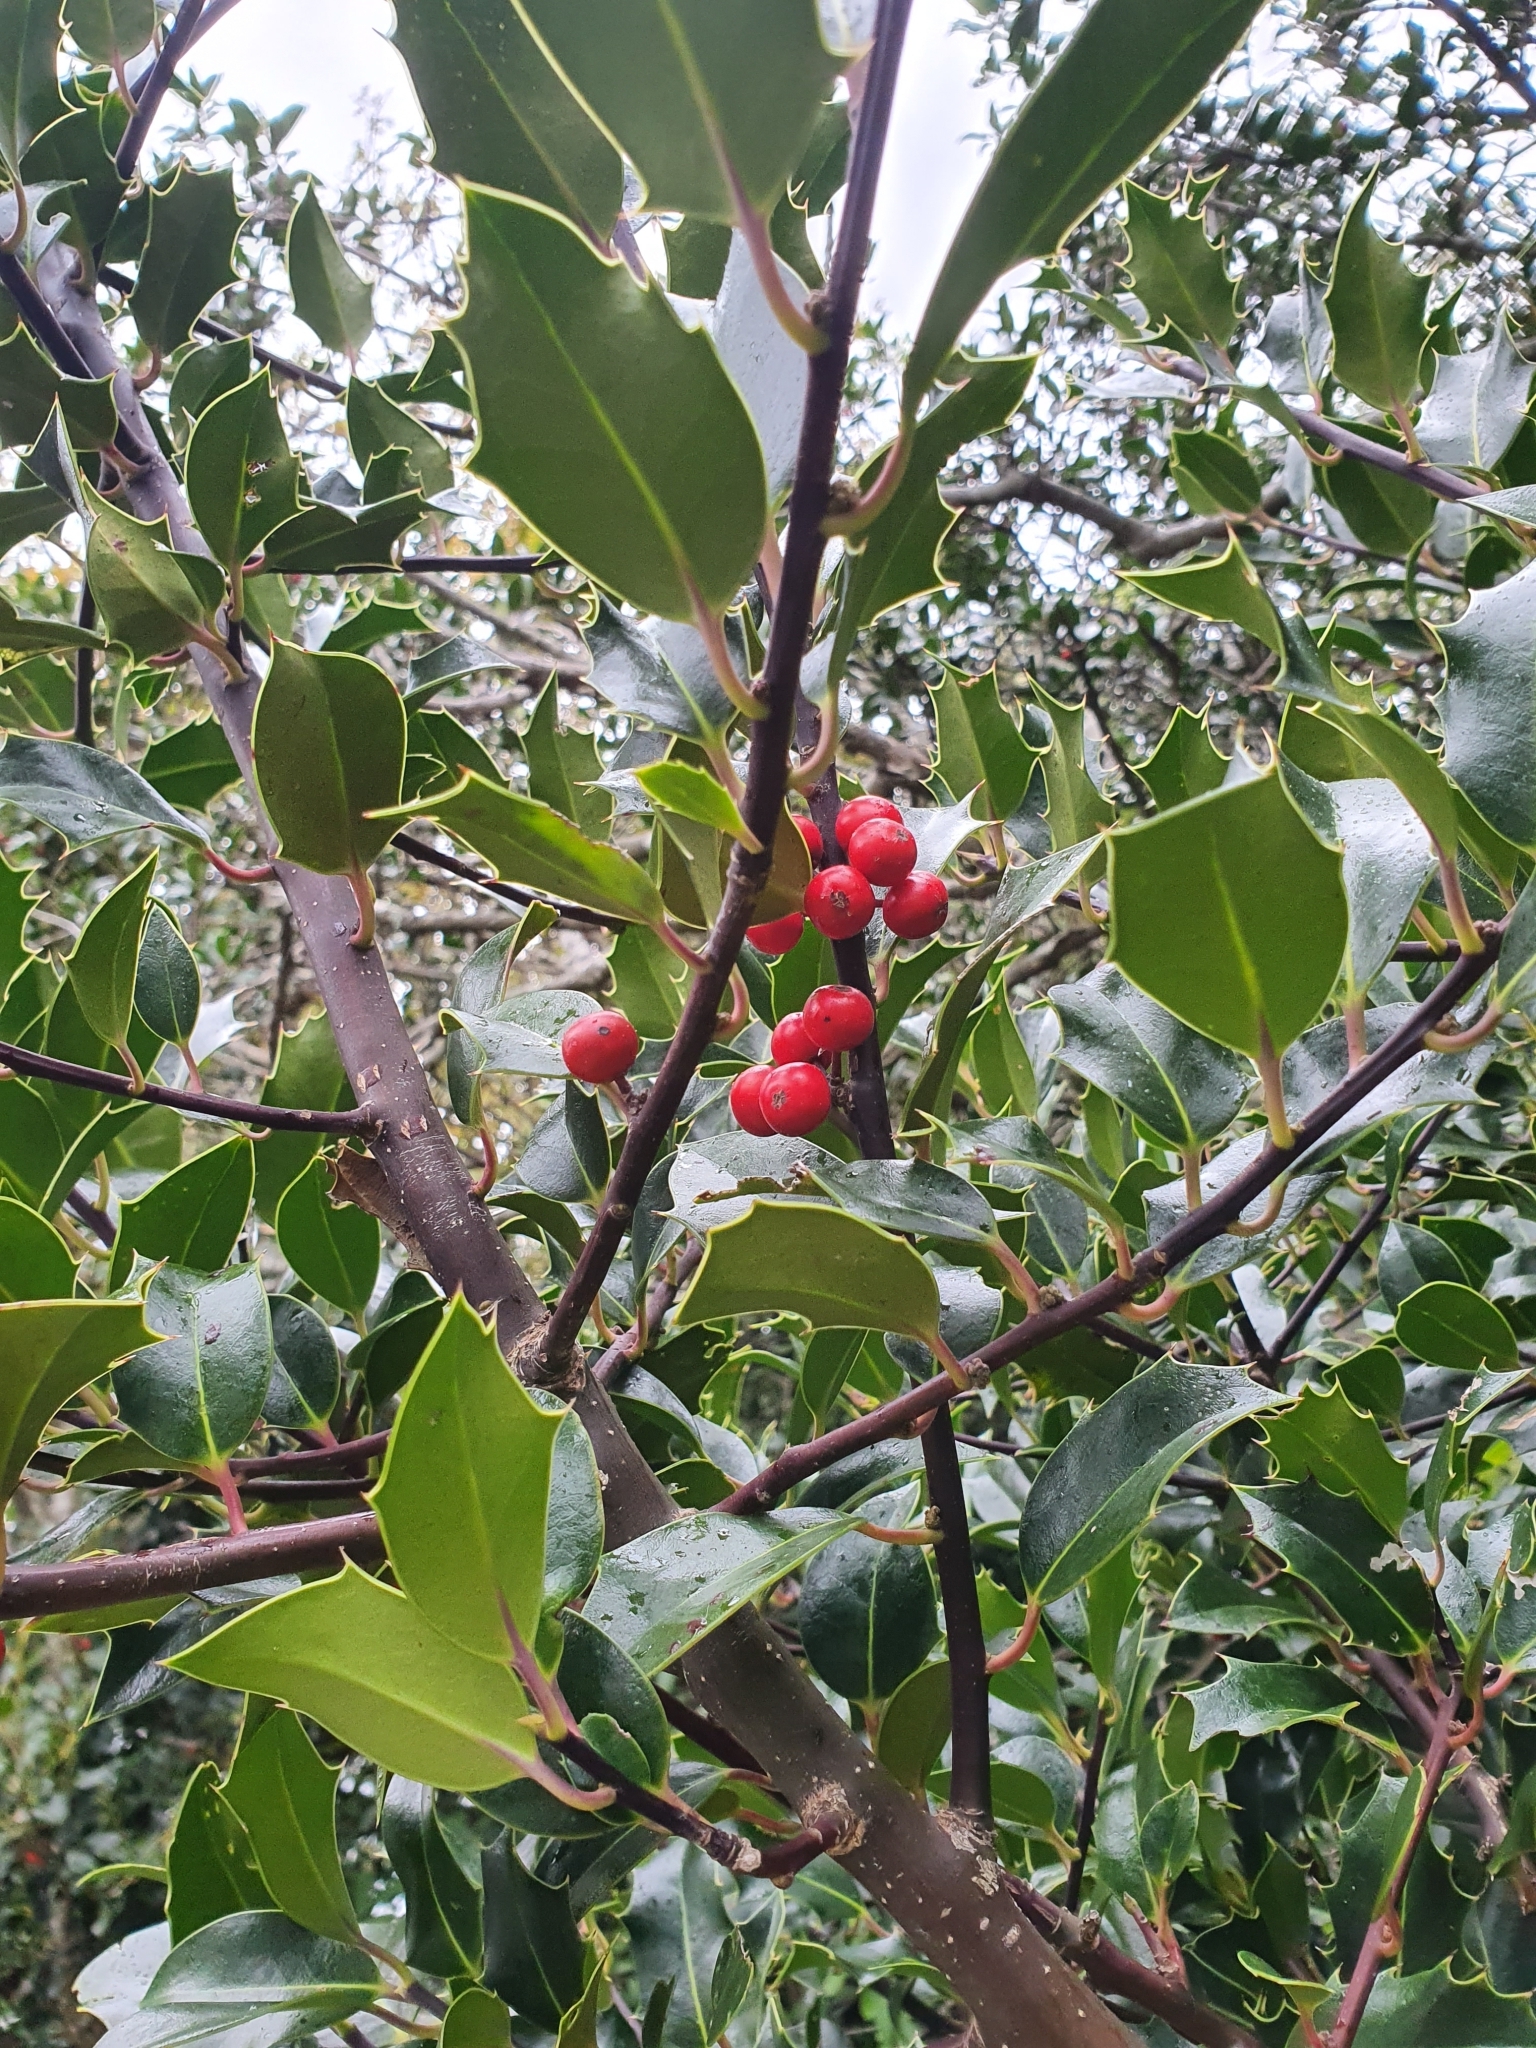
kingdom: Plantae
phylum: Tracheophyta
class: Magnoliopsida
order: Aquifoliales
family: Aquifoliaceae
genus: Ilex
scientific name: Ilex aquifolium
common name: English holly
